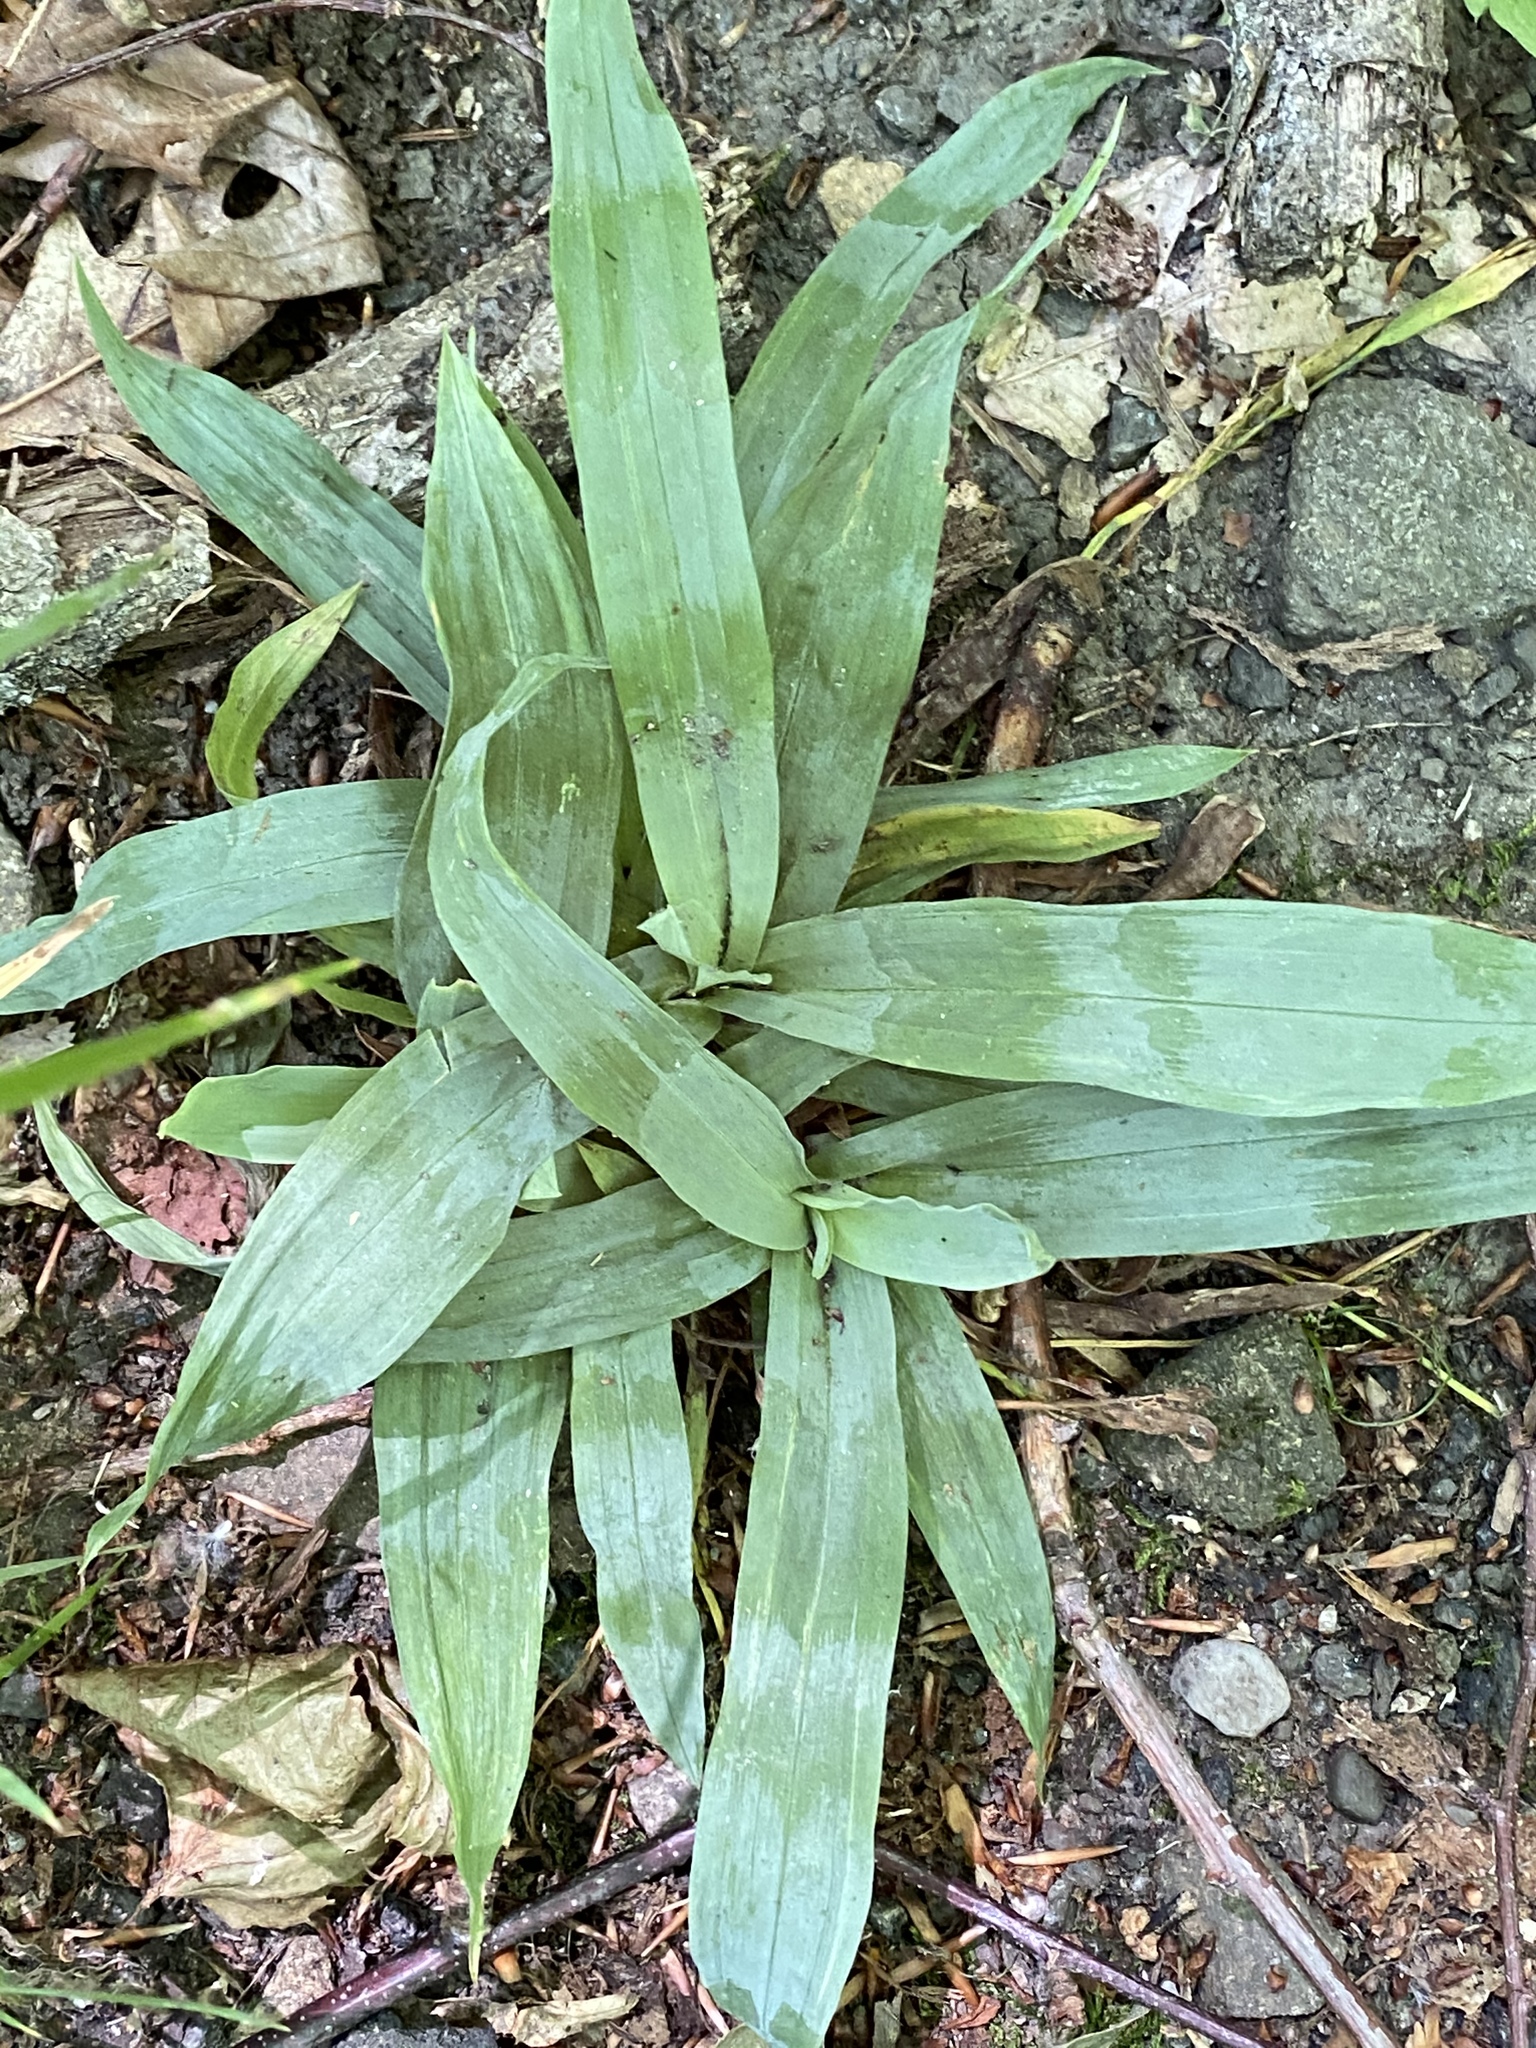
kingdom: Plantae
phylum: Tracheophyta
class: Liliopsida
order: Poales
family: Cyperaceae
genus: Carex
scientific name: Carex platyphylla
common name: Broad-leaved sedge
